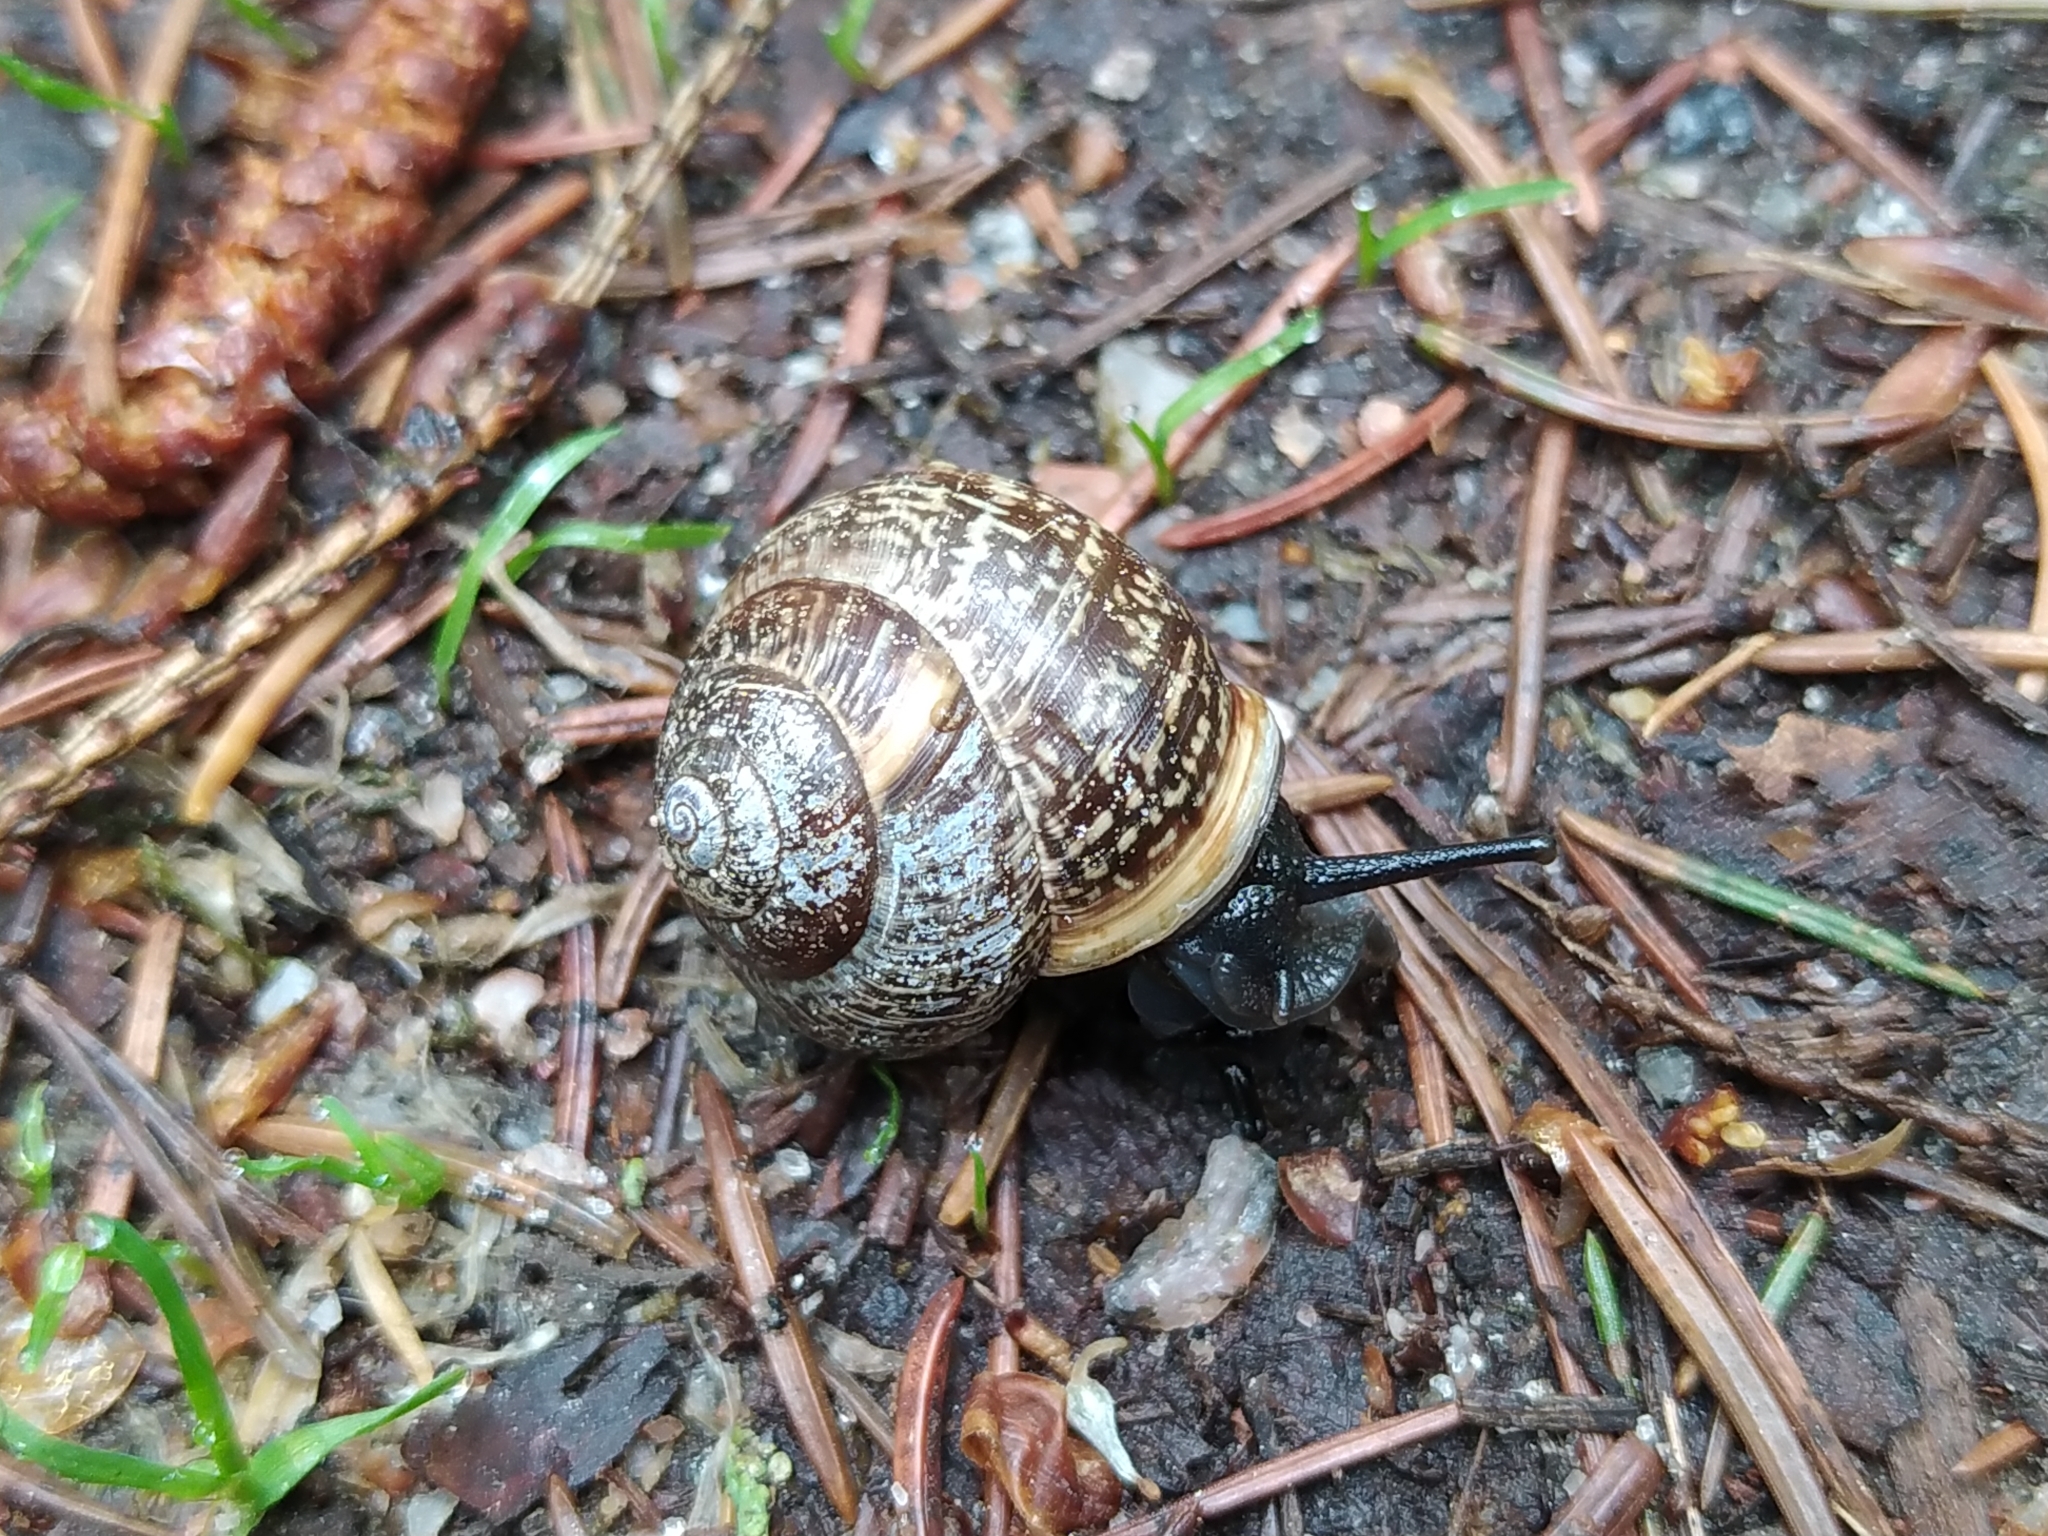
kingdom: Animalia
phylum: Mollusca
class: Gastropoda
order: Stylommatophora
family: Helicidae
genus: Arianta
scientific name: Arianta arbustorum
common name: Copse snail
